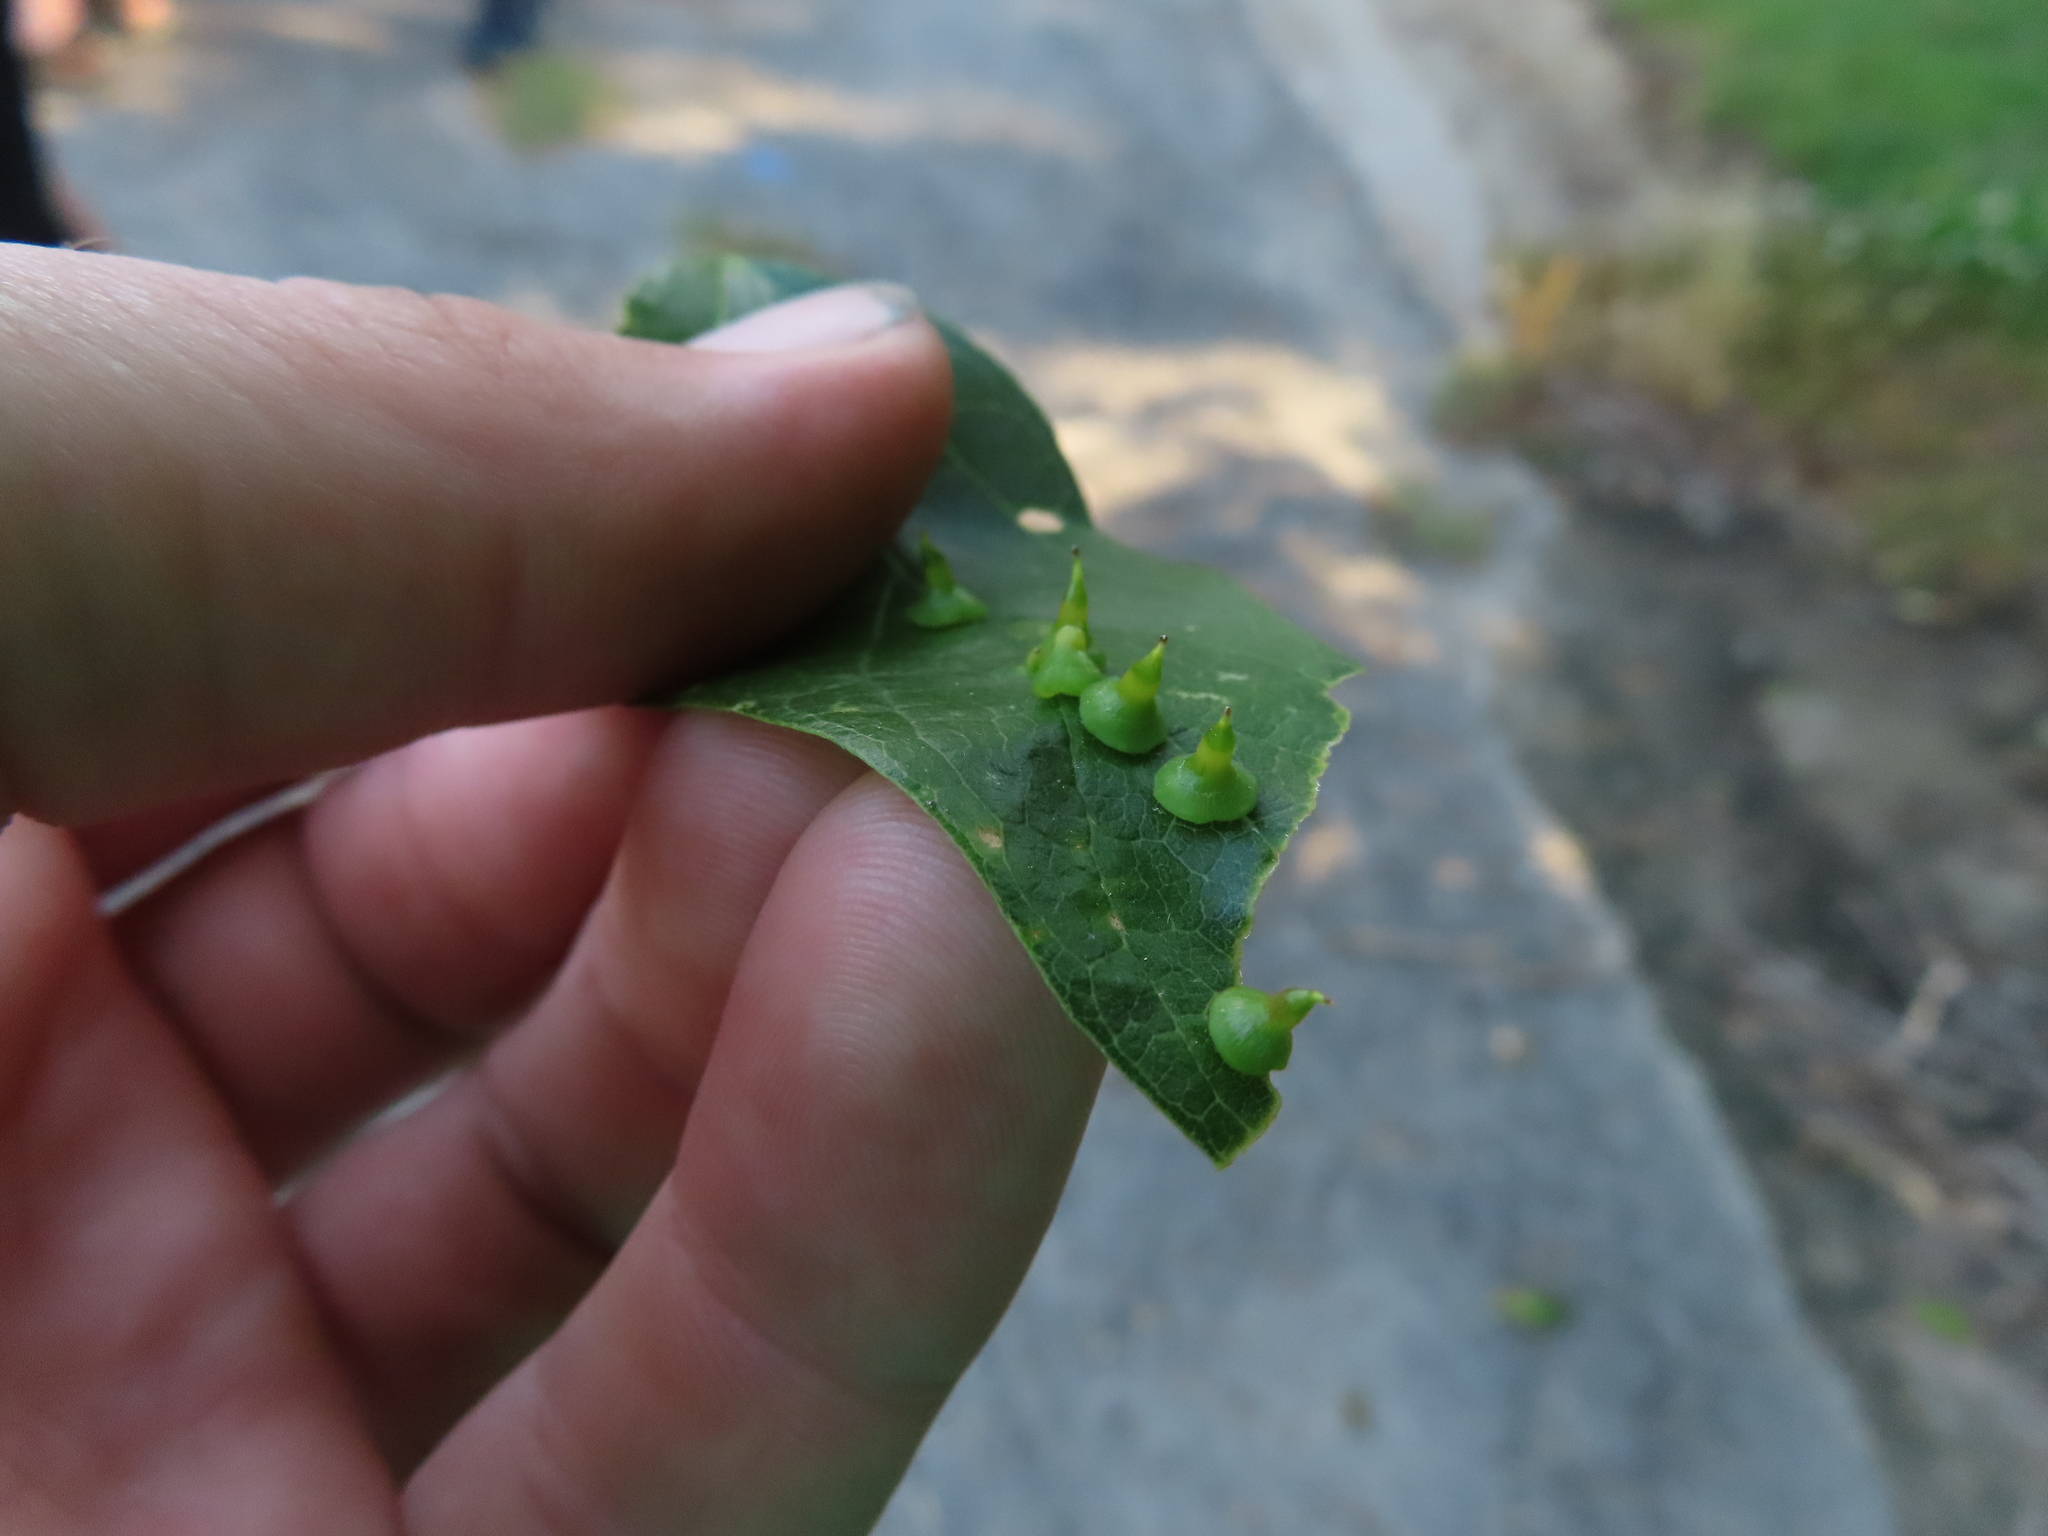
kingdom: Animalia
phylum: Arthropoda
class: Insecta
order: Diptera
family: Cecidomyiidae
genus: Celticecis
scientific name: Celticecis spiniformis
